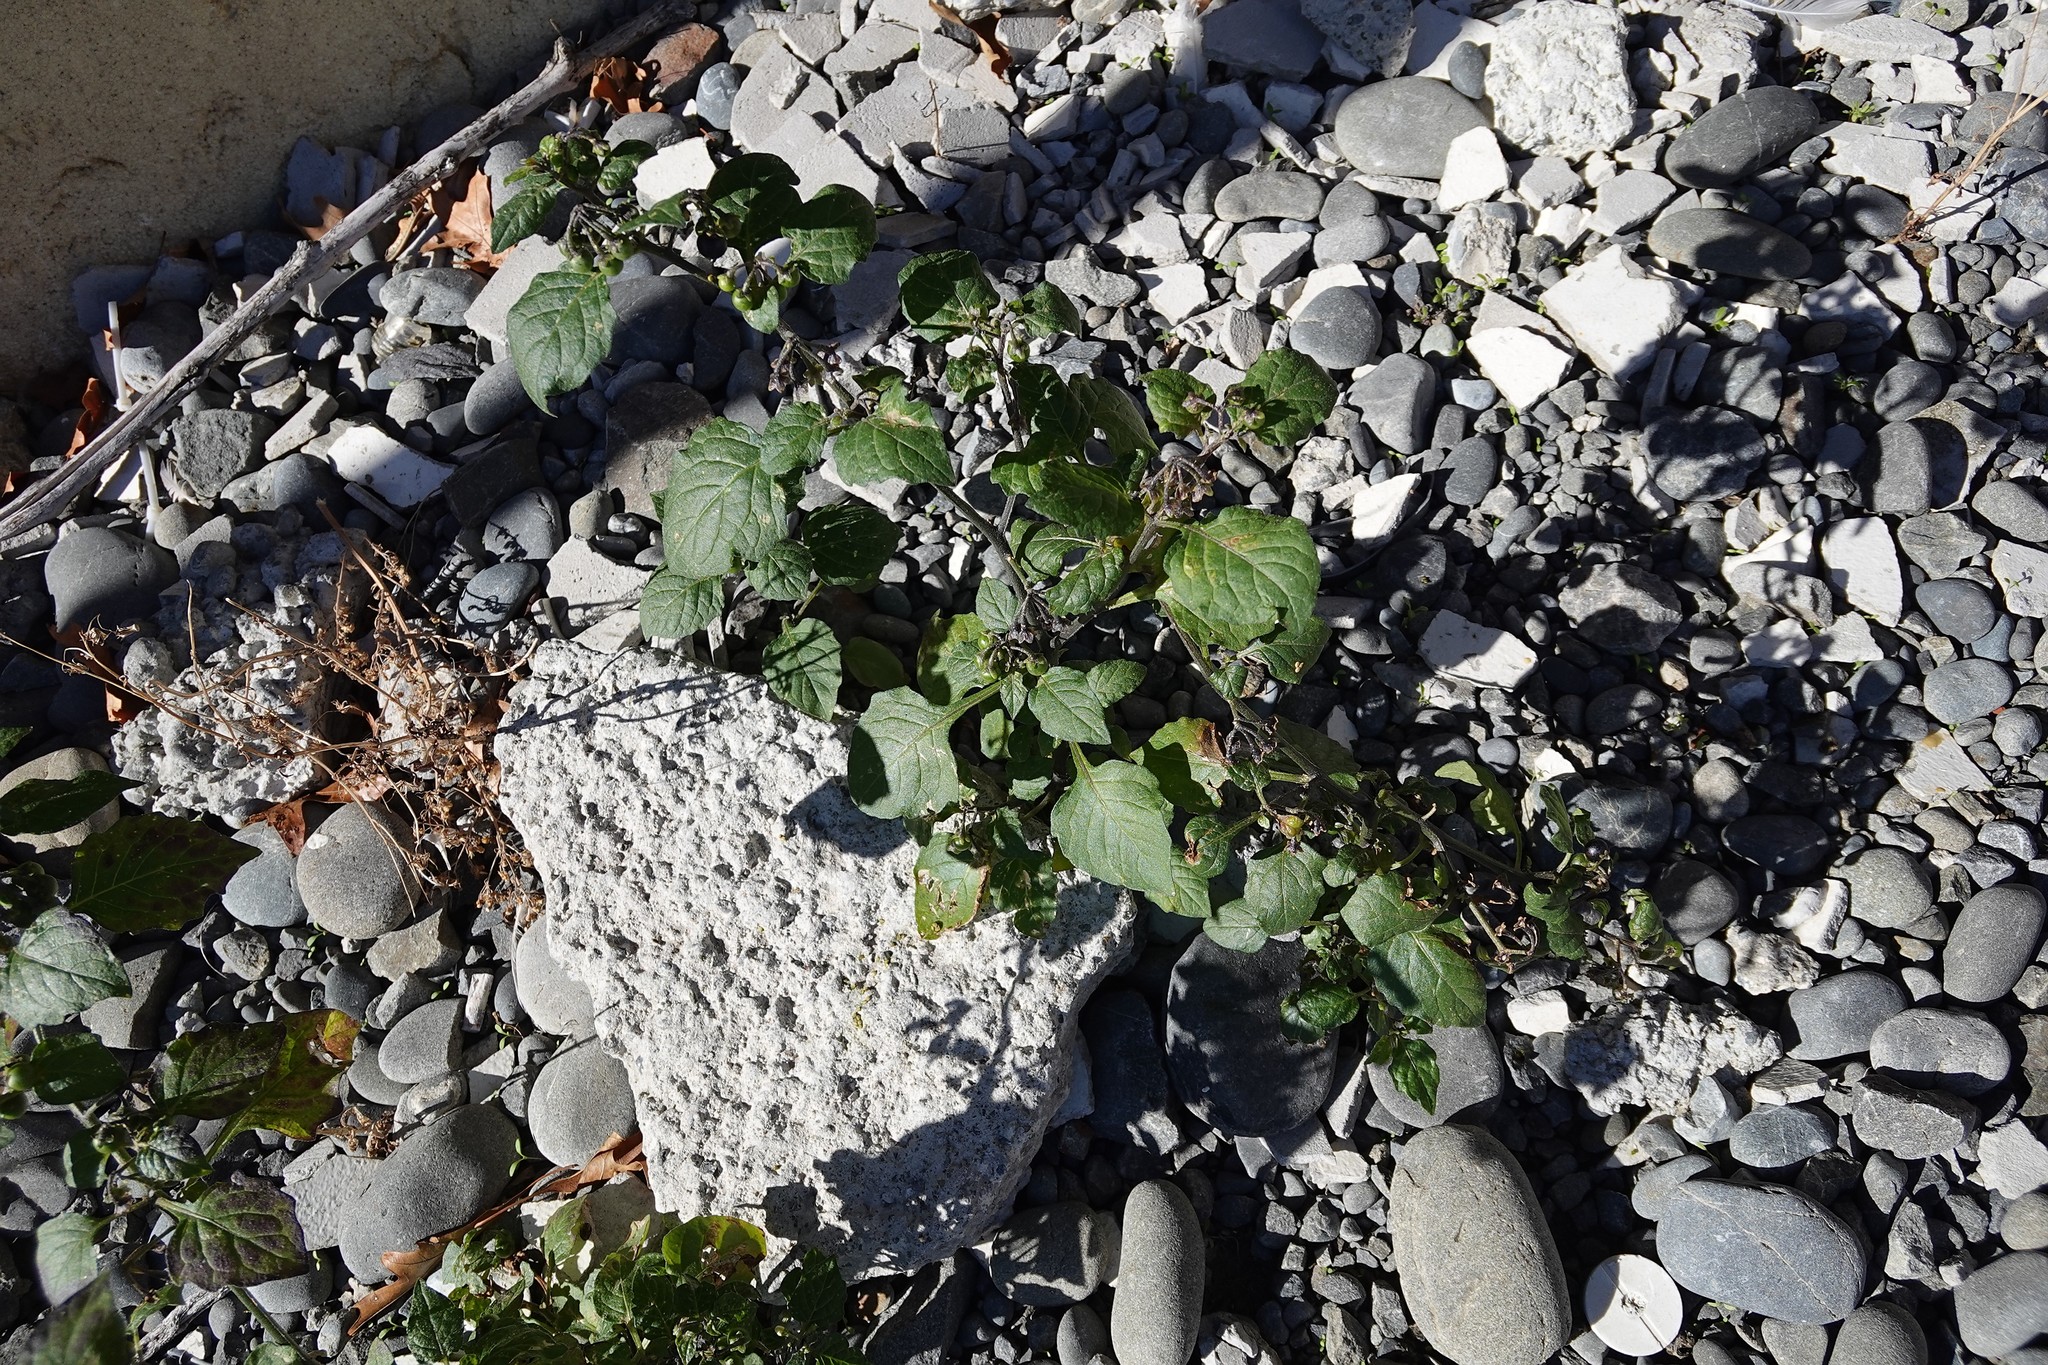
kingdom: Plantae
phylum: Tracheophyta
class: Magnoliopsida
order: Solanales
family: Solanaceae
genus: Solanum
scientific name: Solanum nigrum
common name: Black nightshade
